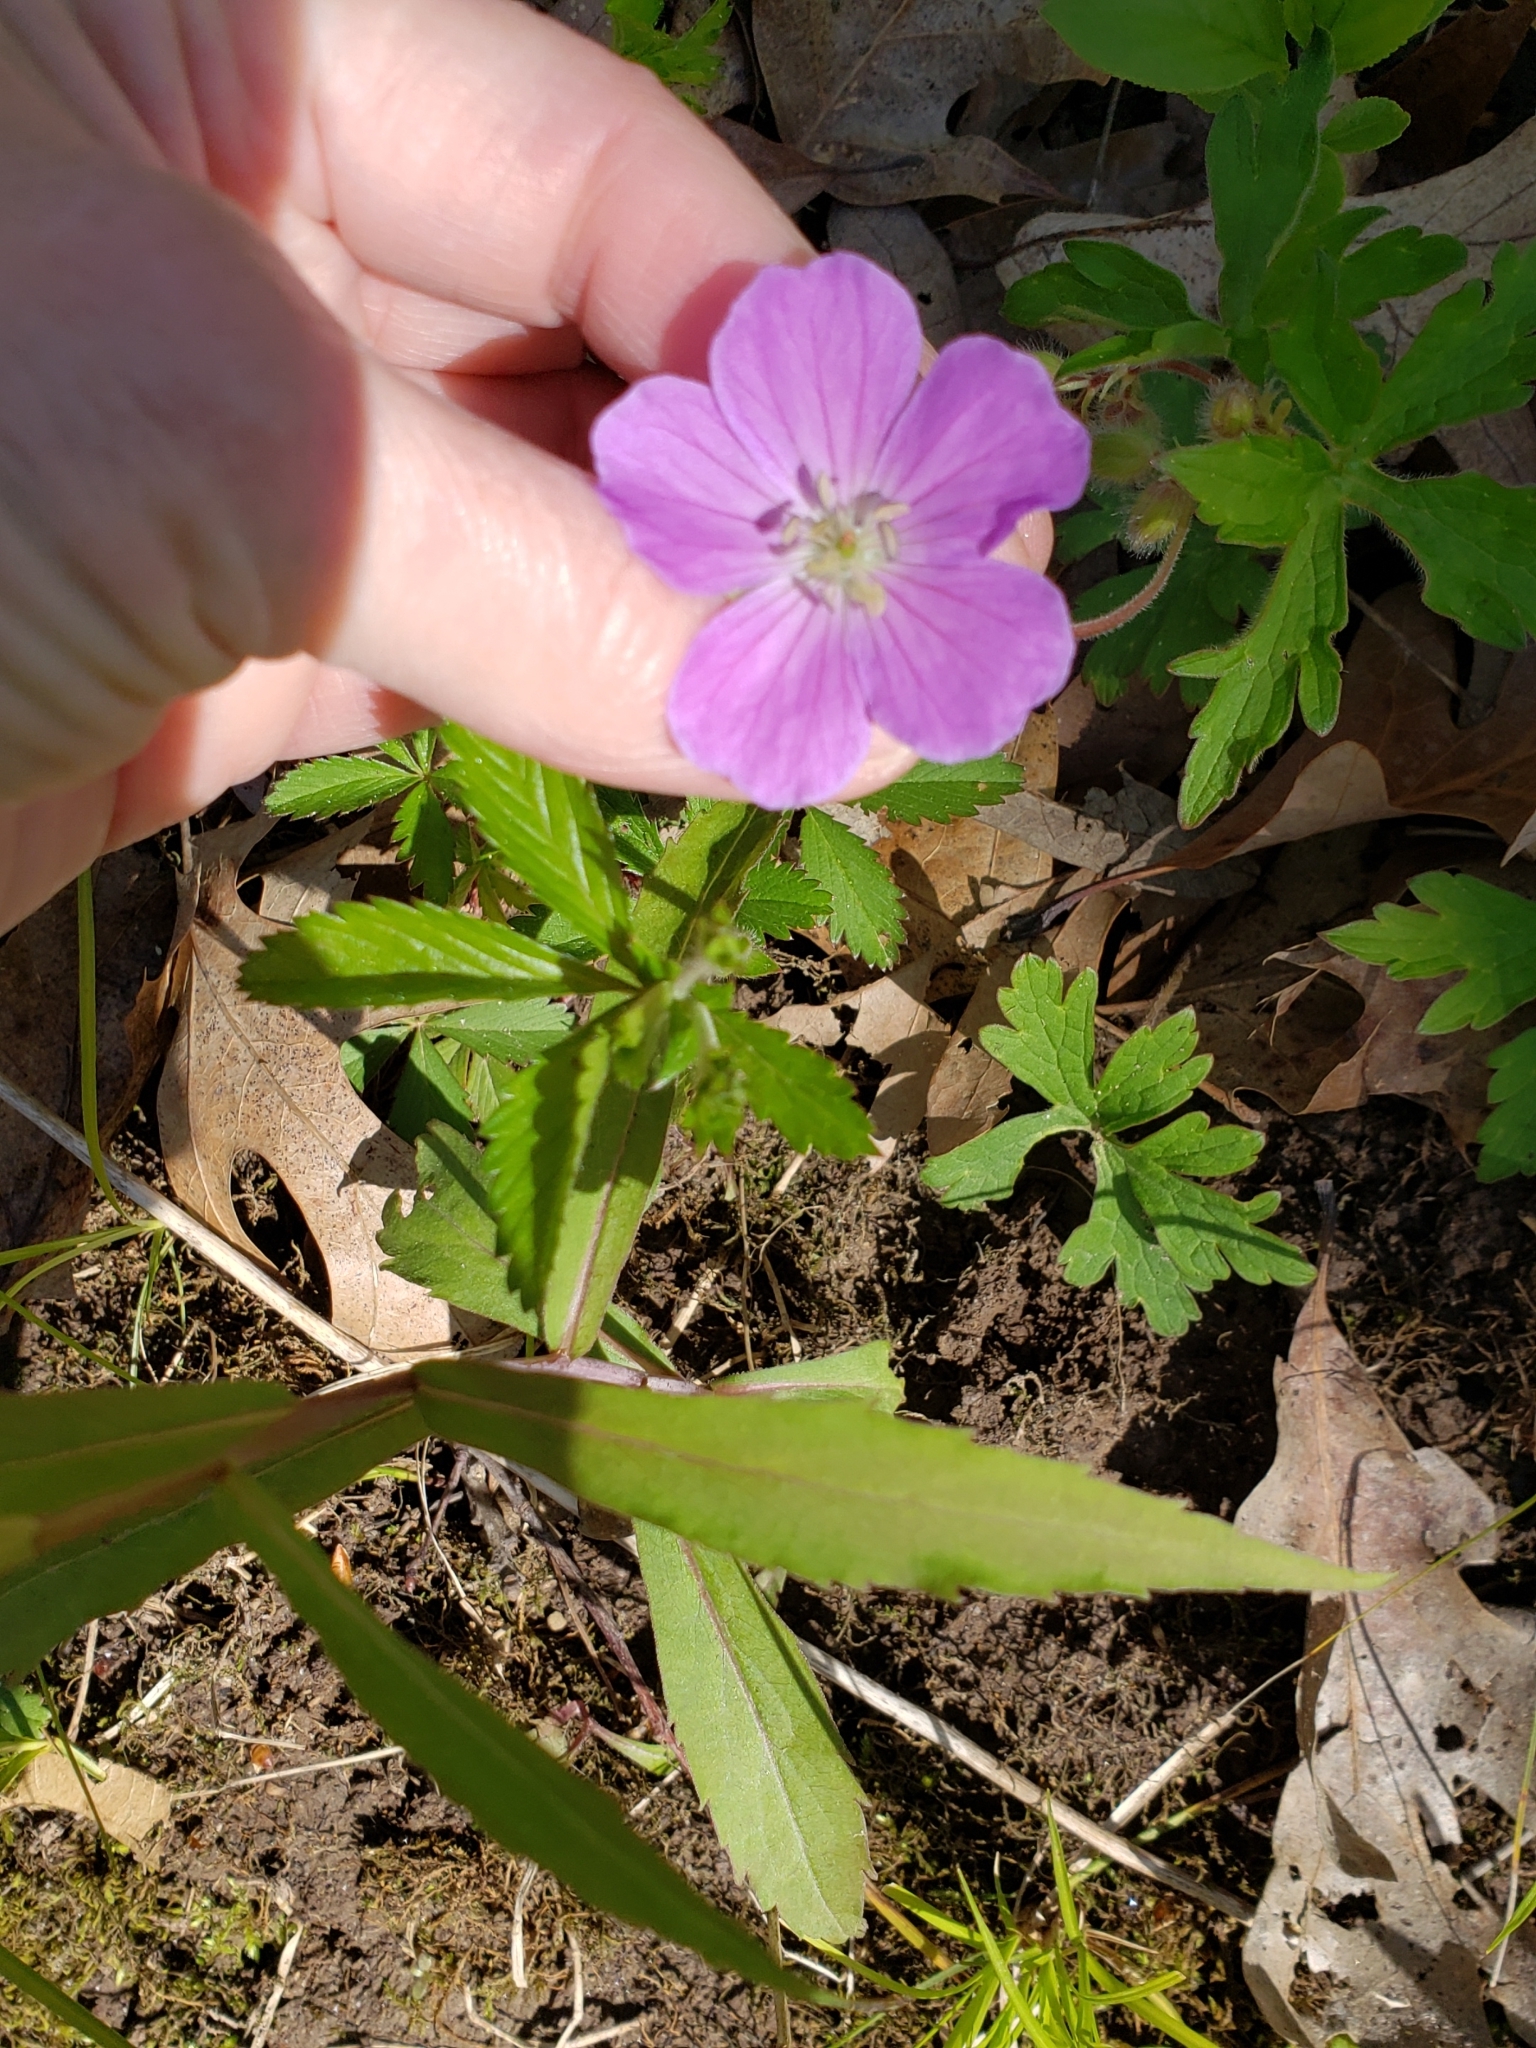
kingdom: Plantae
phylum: Tracheophyta
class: Magnoliopsida
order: Geraniales
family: Geraniaceae
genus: Geranium
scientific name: Geranium maculatum
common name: Spotted geranium
